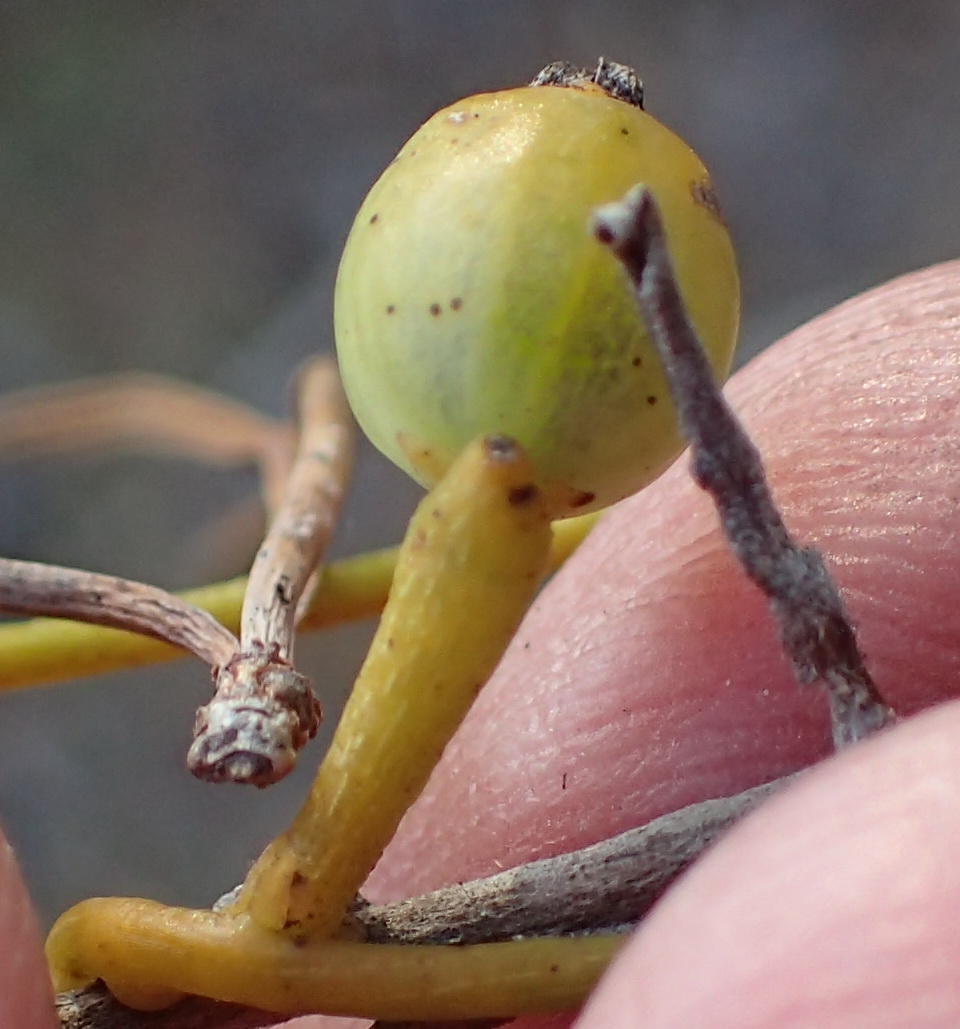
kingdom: Plantae
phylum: Tracheophyta
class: Magnoliopsida
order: Laurales
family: Lauraceae
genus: Cassytha
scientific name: Cassytha ciliolata
